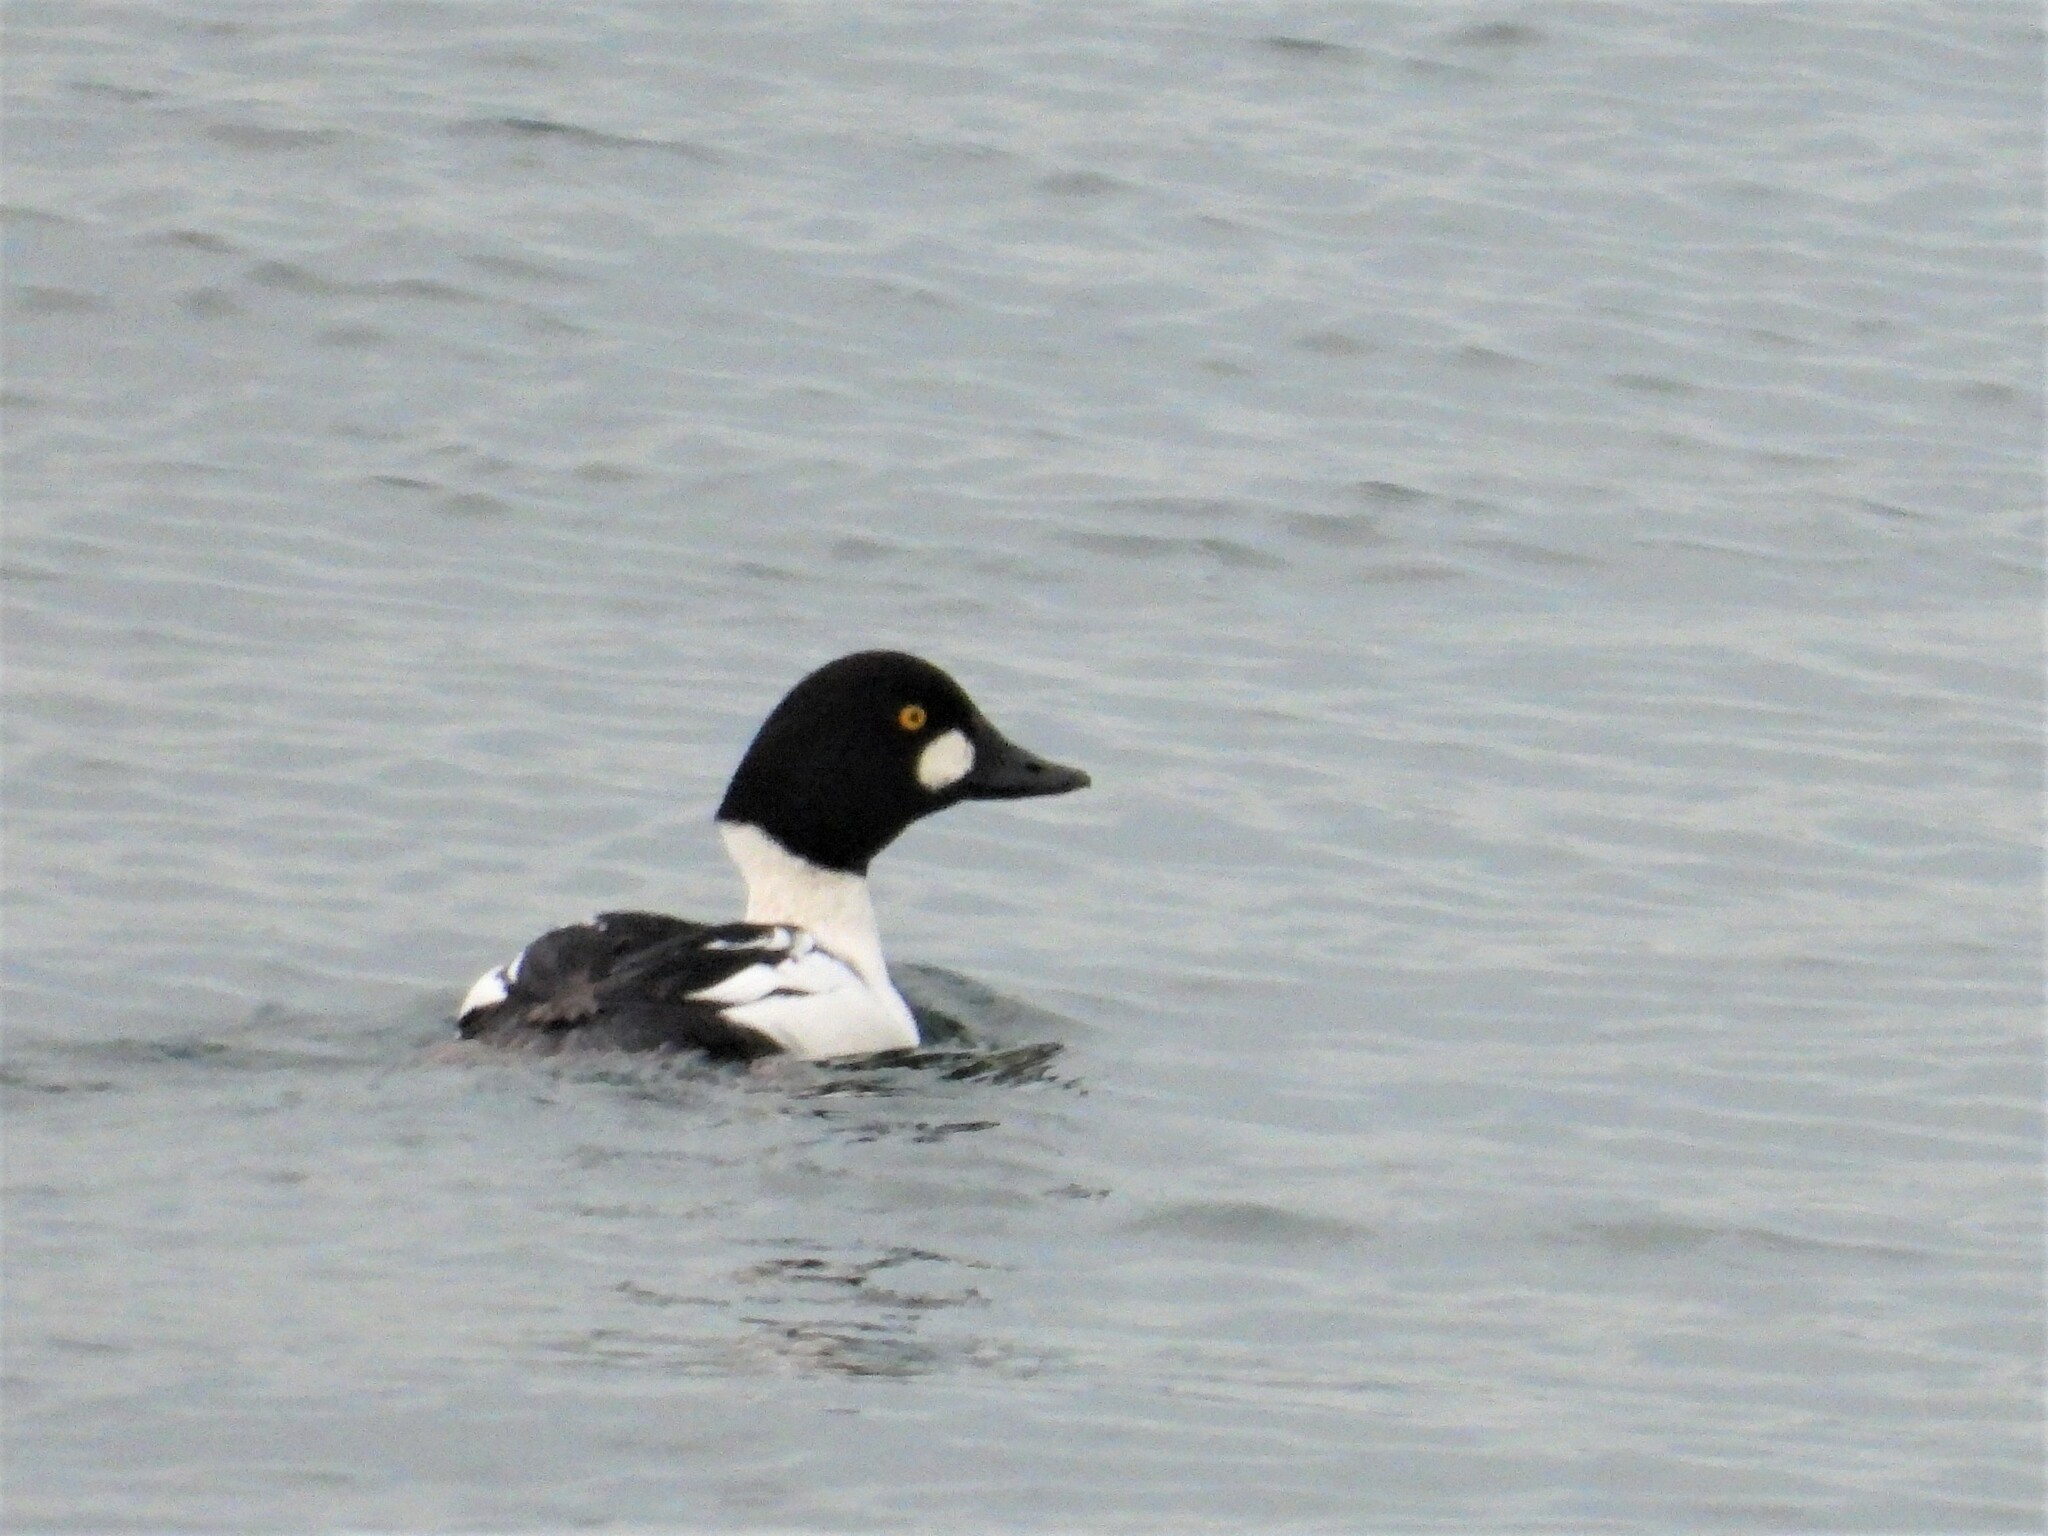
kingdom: Animalia
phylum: Chordata
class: Aves
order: Anseriformes
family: Anatidae
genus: Bucephala
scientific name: Bucephala clangula
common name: Common goldeneye
